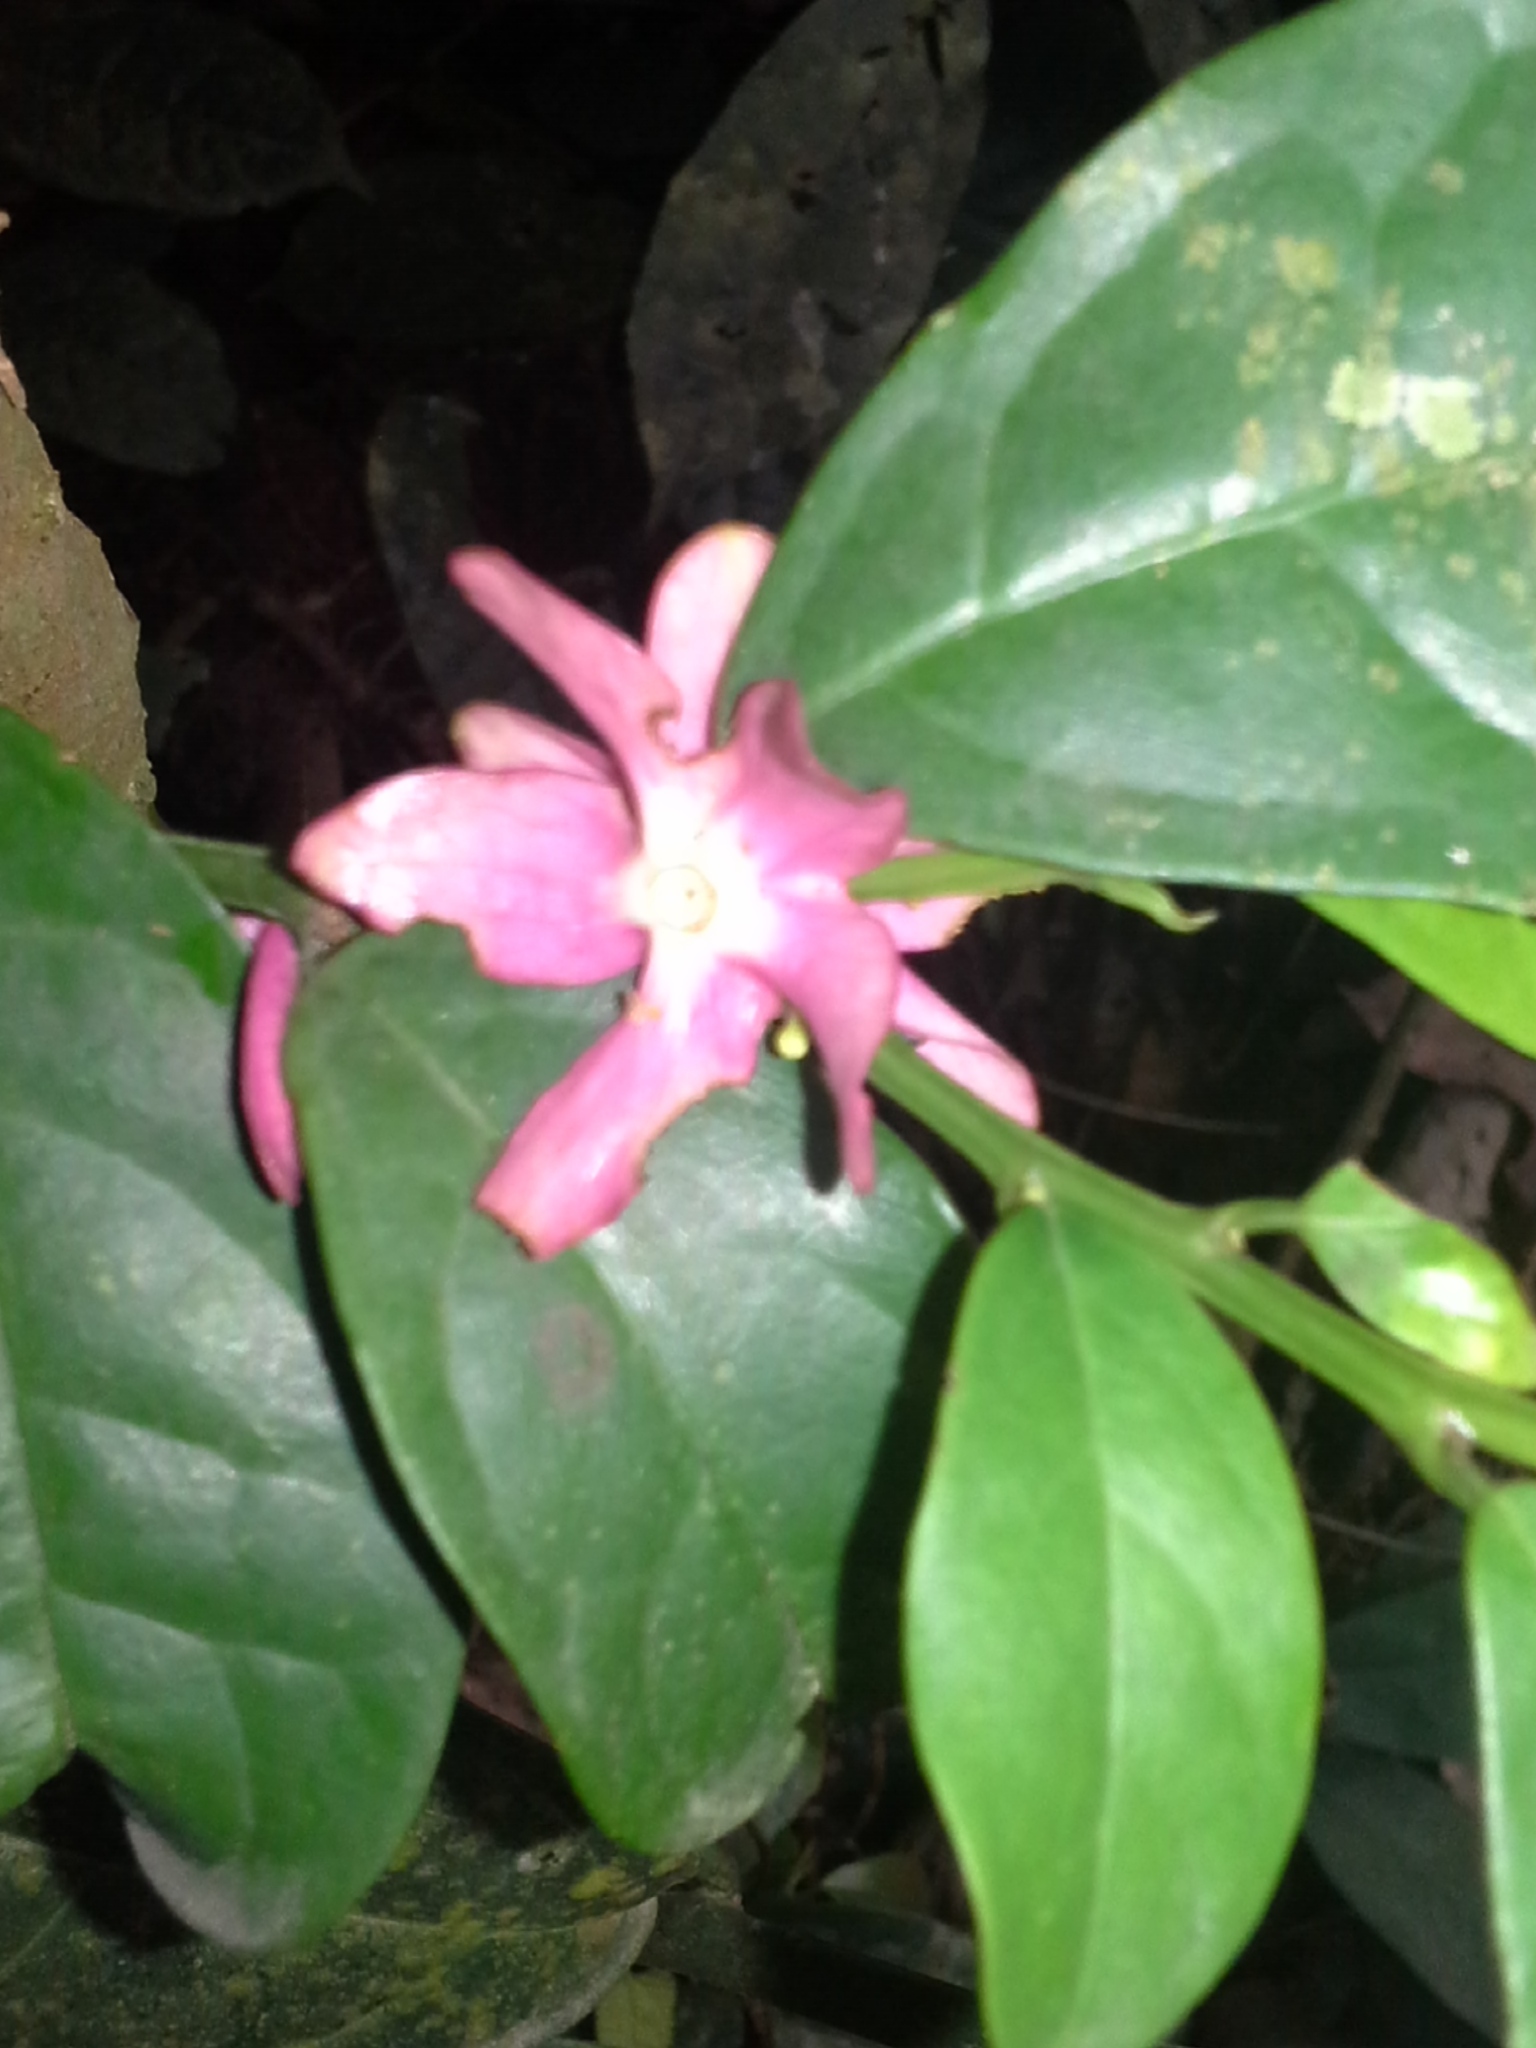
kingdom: Plantae
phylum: Tracheophyta
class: Magnoliopsida
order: Santalales
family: Erythropalaceae
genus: Heisteria
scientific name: Heisteria parvifolia
